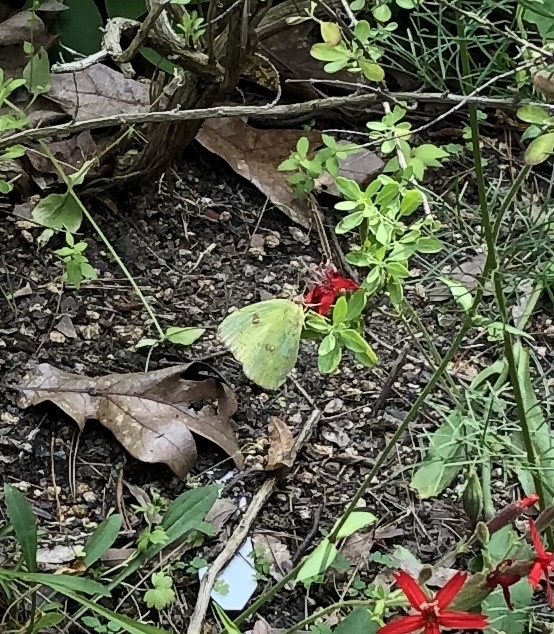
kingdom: Animalia
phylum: Arthropoda
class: Insecta
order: Lepidoptera
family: Pieridae
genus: Phoebis
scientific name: Phoebis sennae
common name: Cloudless sulphur
